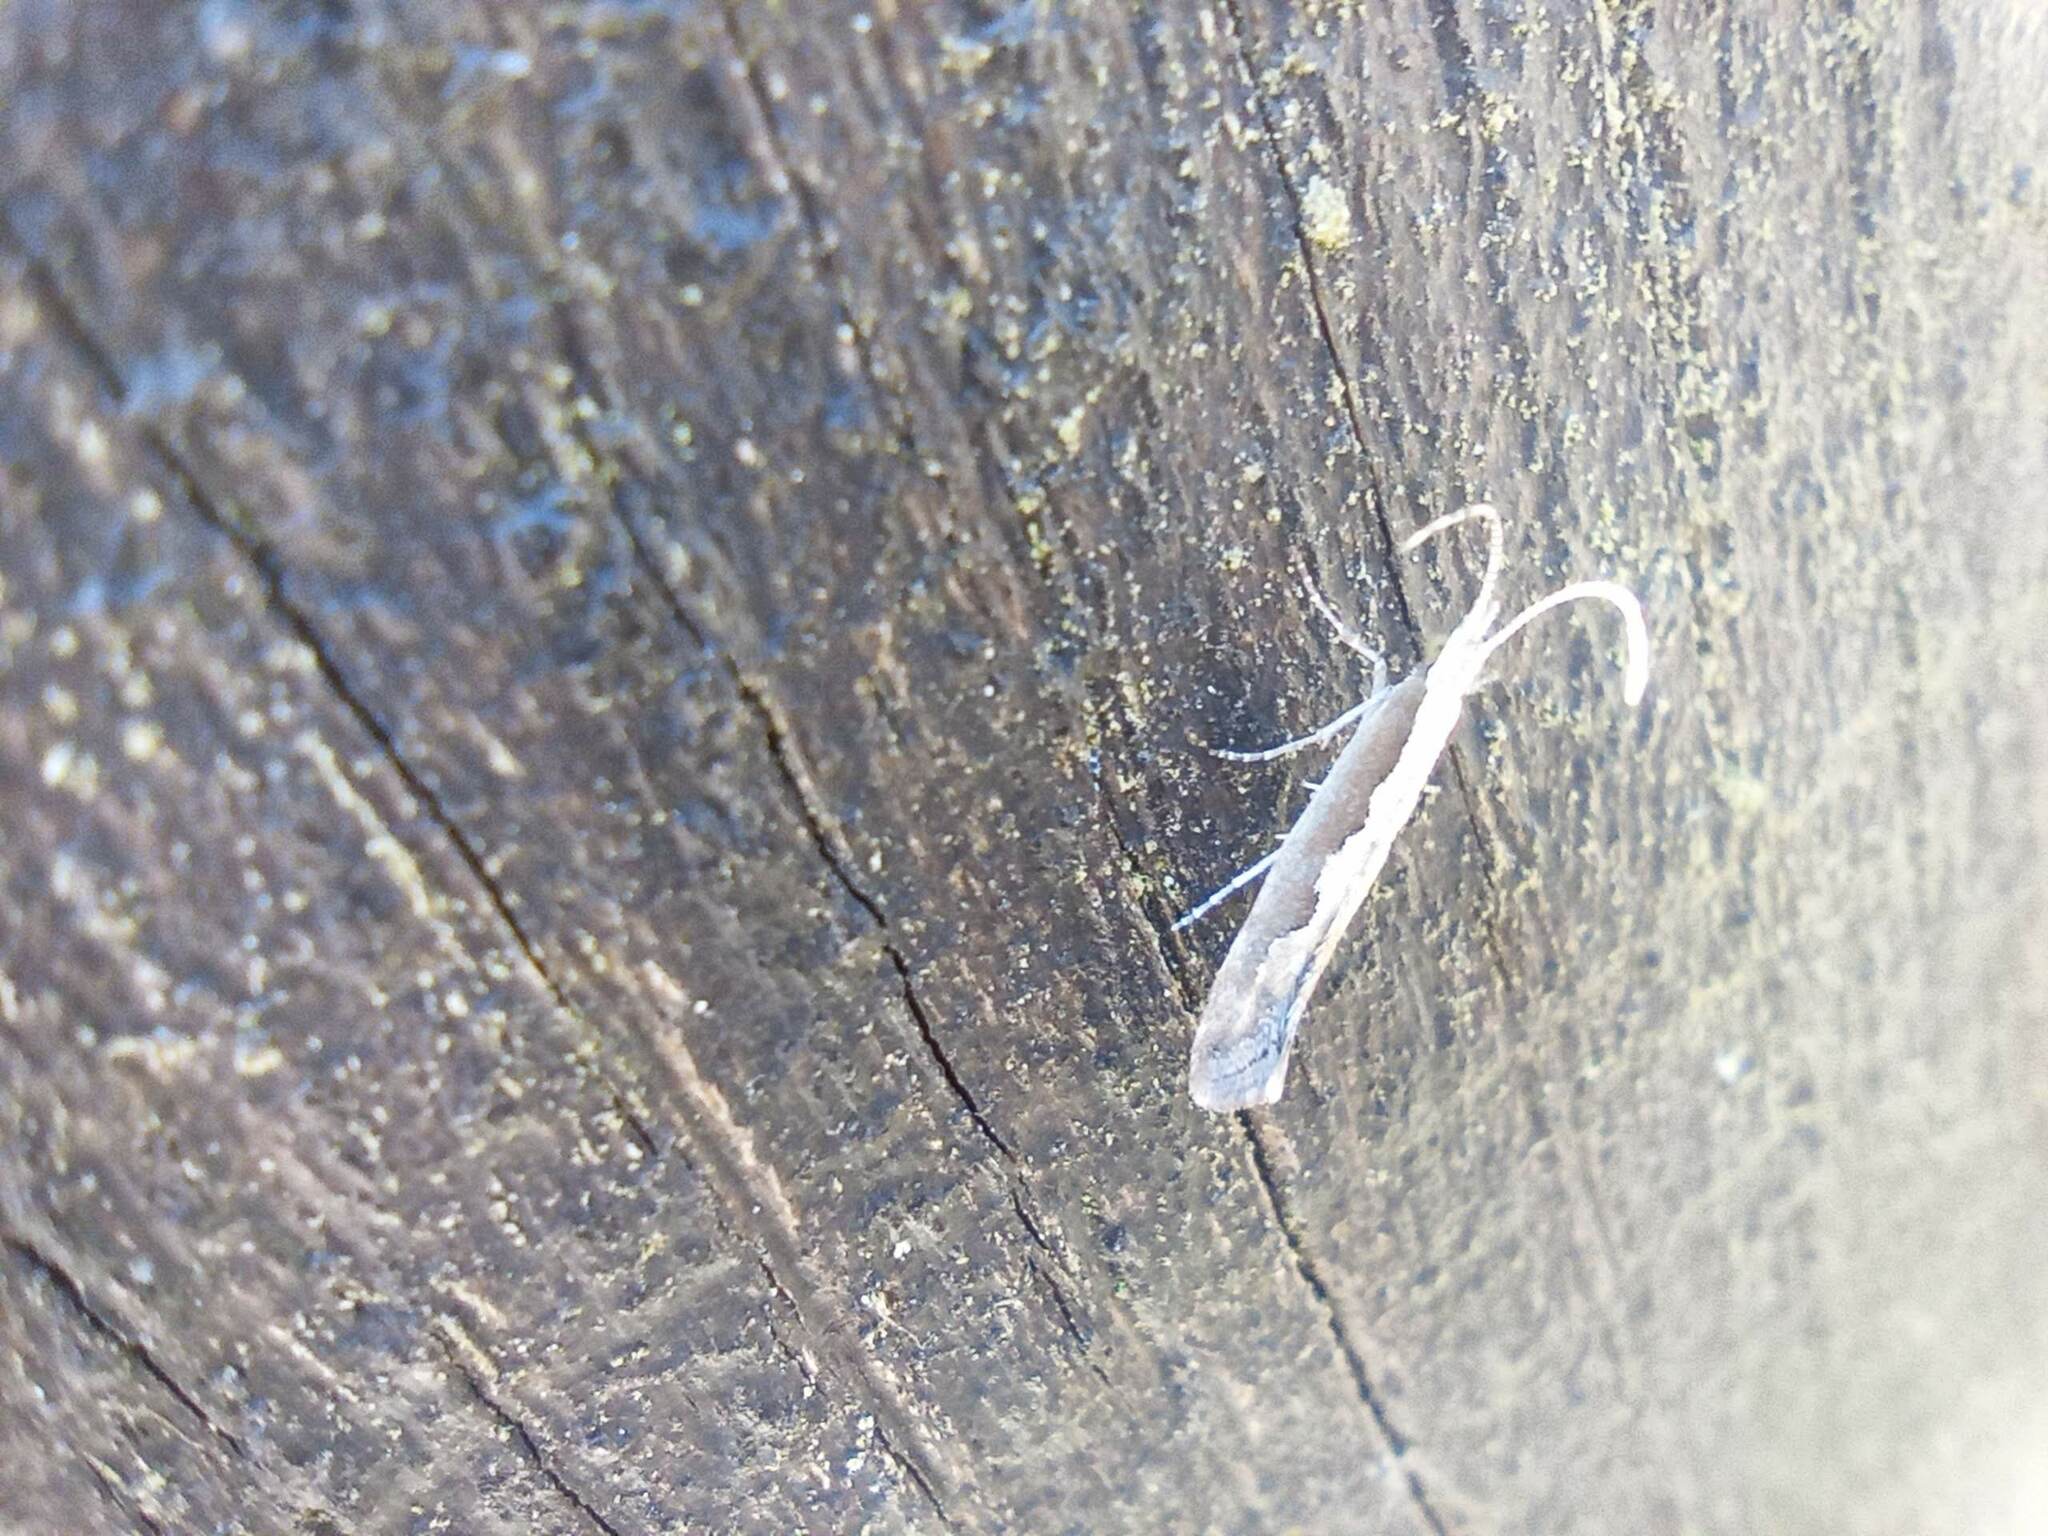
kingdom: Animalia
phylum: Arthropoda
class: Insecta
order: Lepidoptera
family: Plutellidae
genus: Plutella
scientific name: Plutella xylostella
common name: Diamond-back moth
